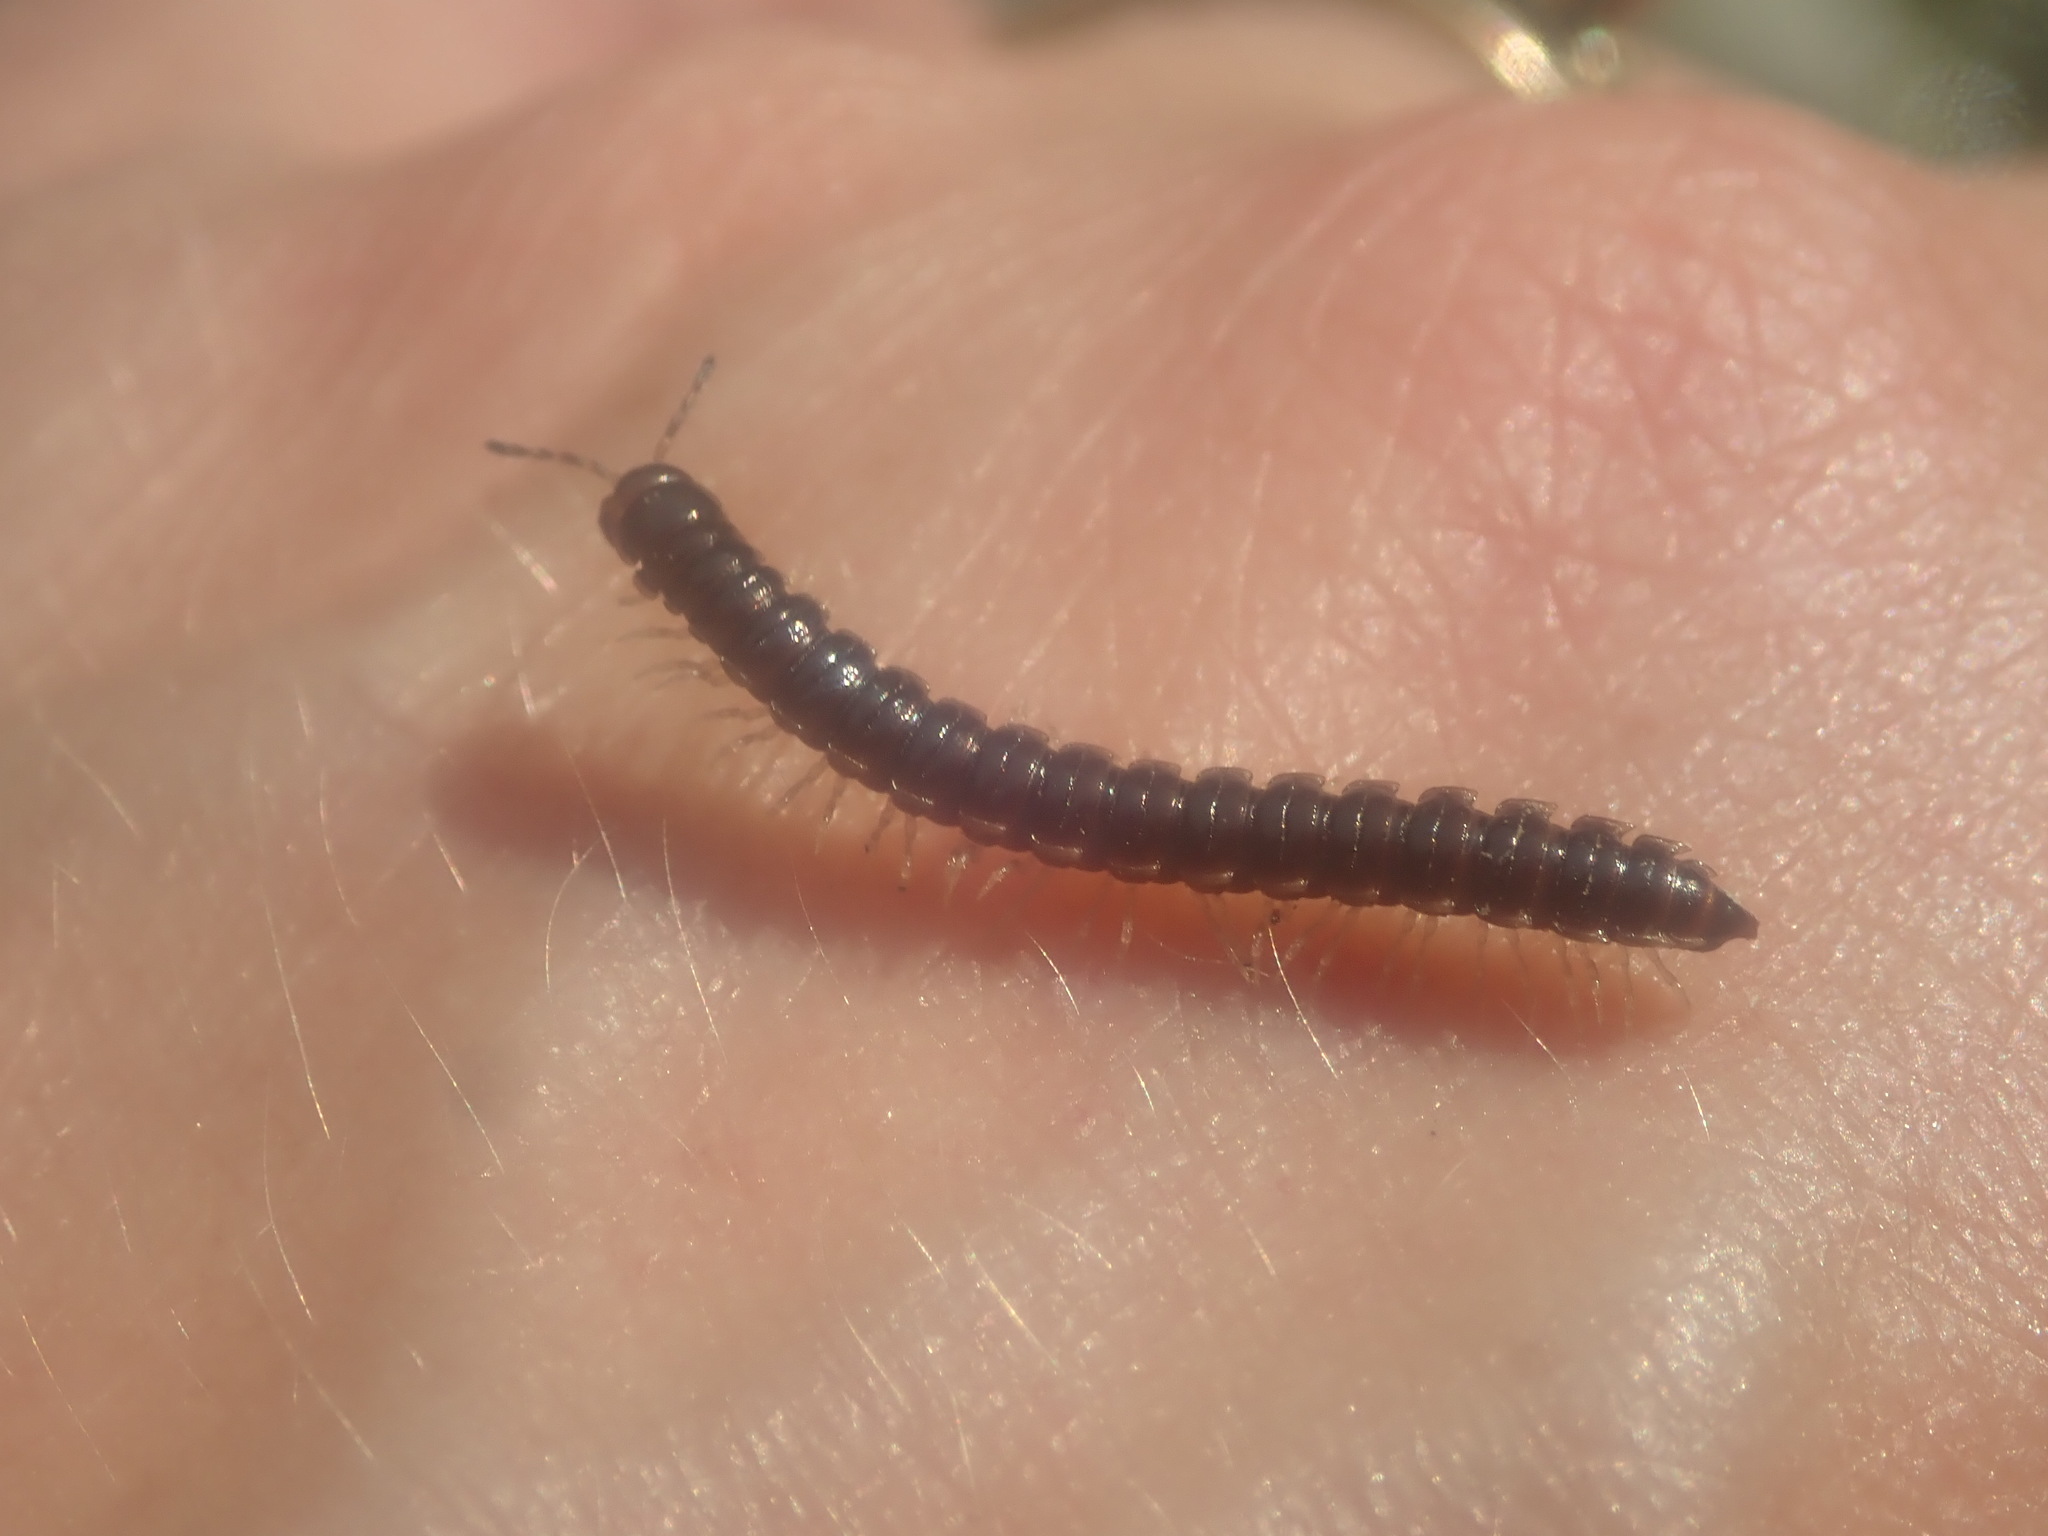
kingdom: Animalia
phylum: Arthropoda
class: Diplopoda
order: Polydesmida
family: Paradoxosomatidae
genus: Oxidus
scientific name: Oxidus gracilis
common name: Greenhouse millipede
